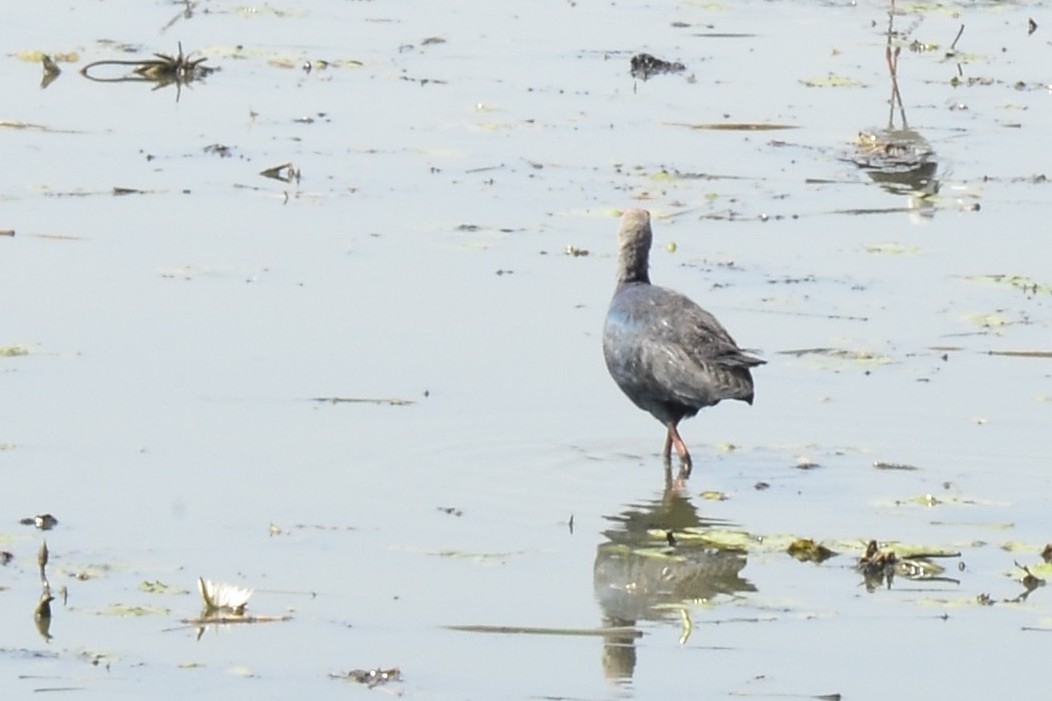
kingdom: Animalia
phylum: Chordata
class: Aves
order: Gruiformes
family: Rallidae
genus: Porphyrio
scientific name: Porphyrio porphyrio
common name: Purple swamphen
